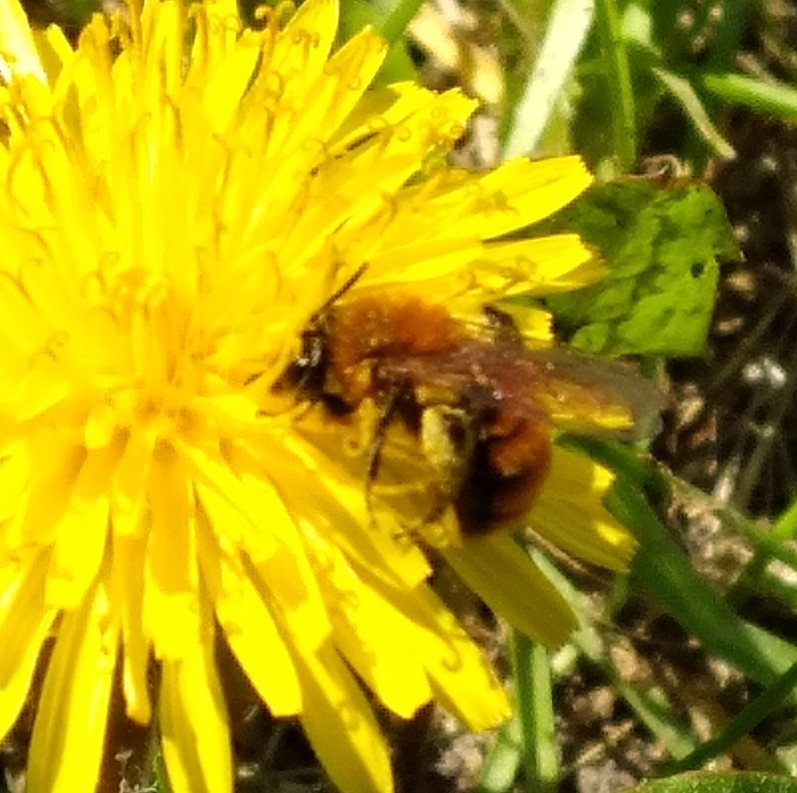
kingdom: Animalia
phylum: Arthropoda
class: Insecta
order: Hymenoptera
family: Andrenidae
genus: Andrena
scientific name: Andrena milwaukeensis
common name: Milwaukee mining bee
